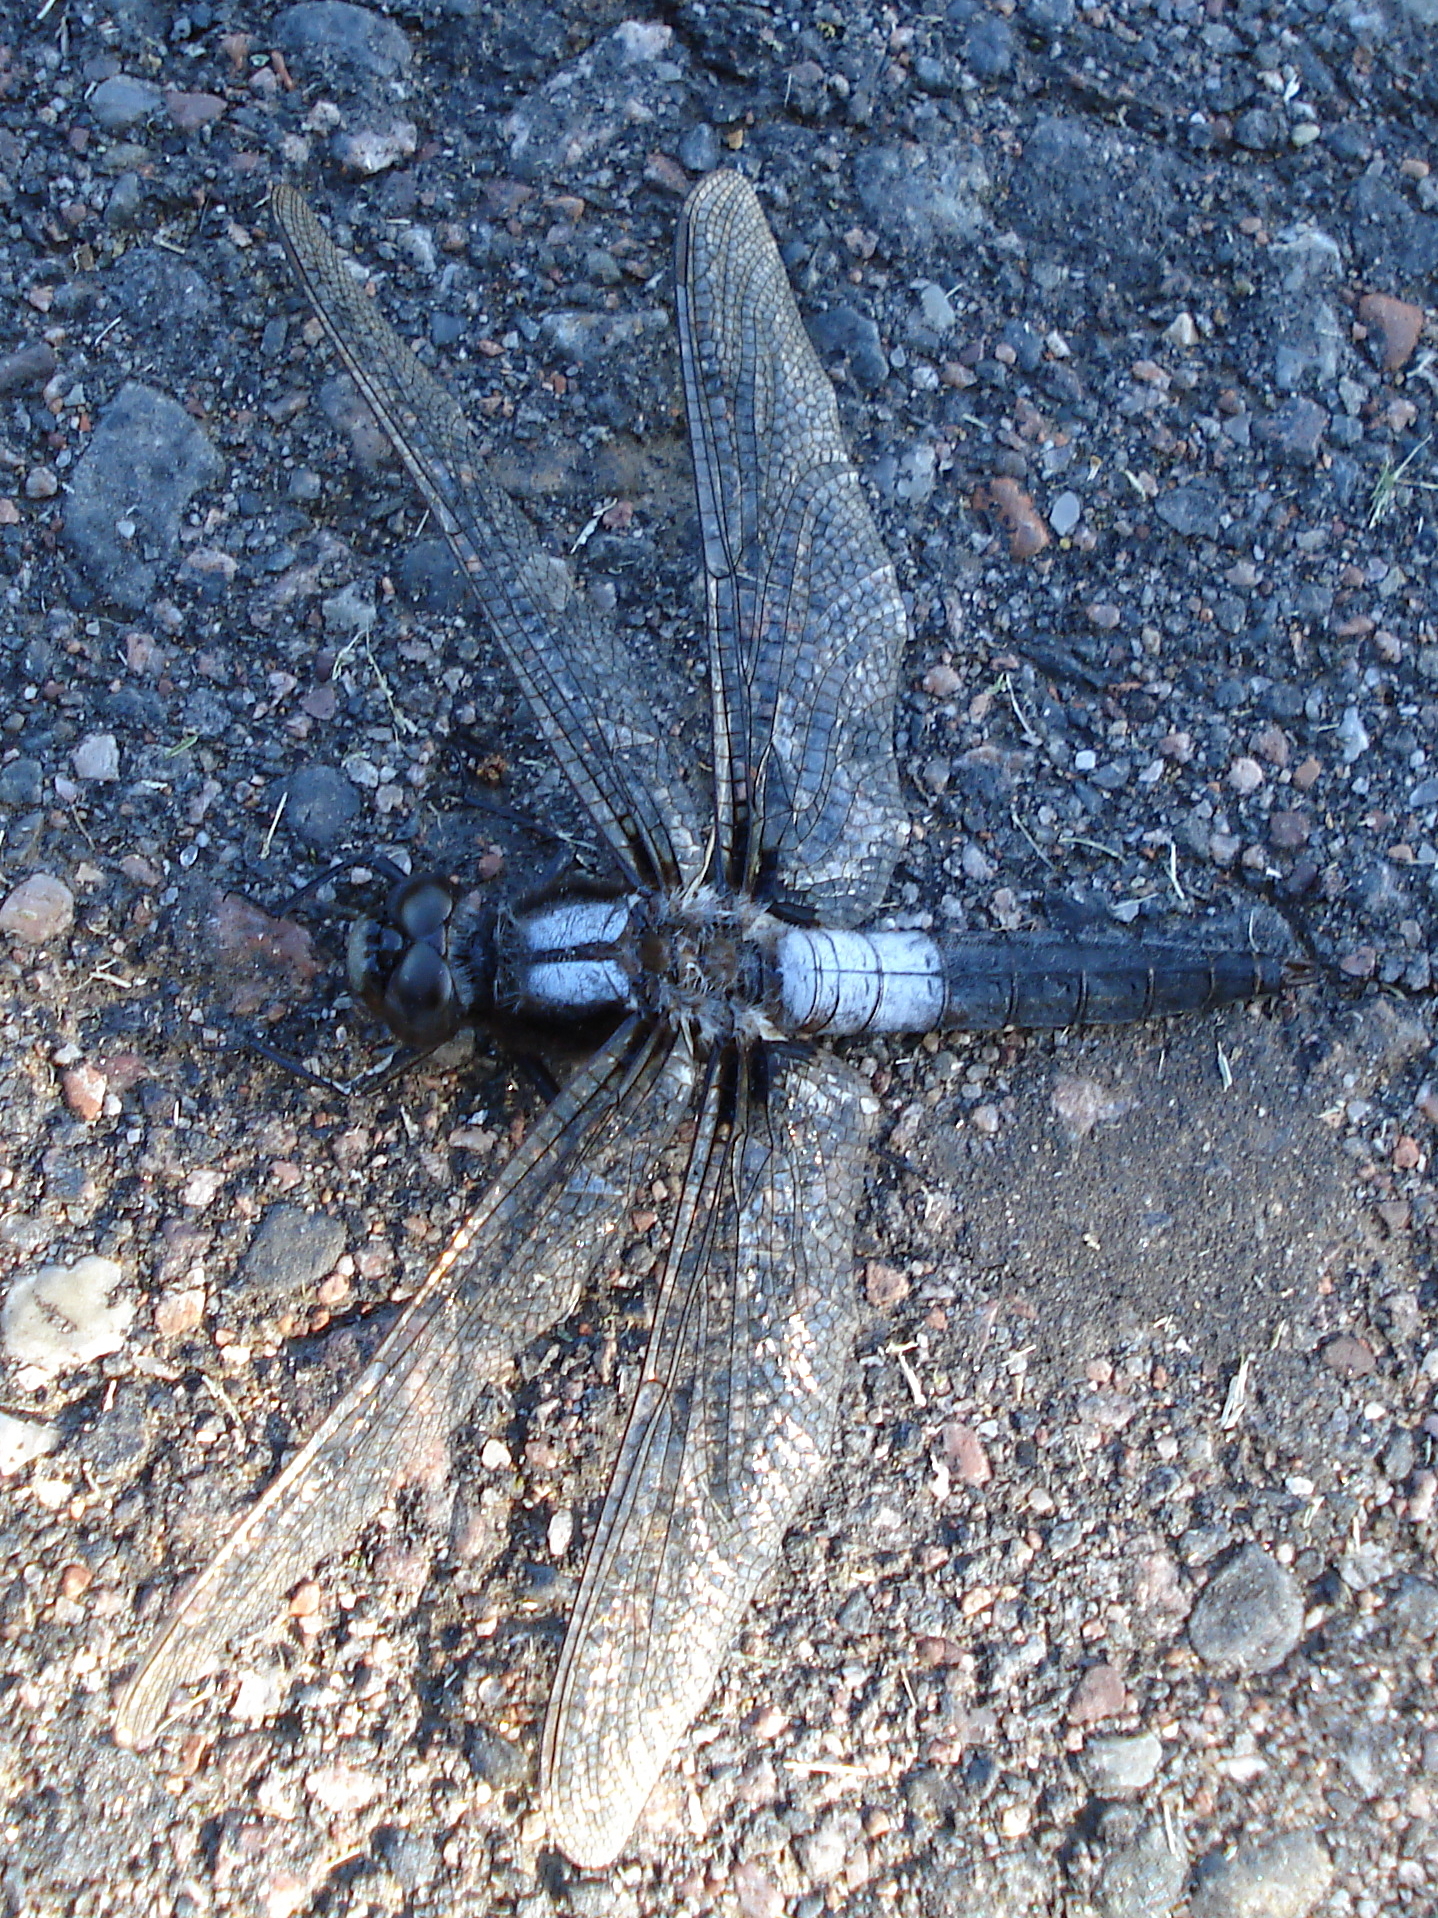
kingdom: Animalia
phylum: Arthropoda
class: Insecta
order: Odonata
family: Libellulidae
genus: Ladona
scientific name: Ladona julia
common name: Chalk-fronted corporal
